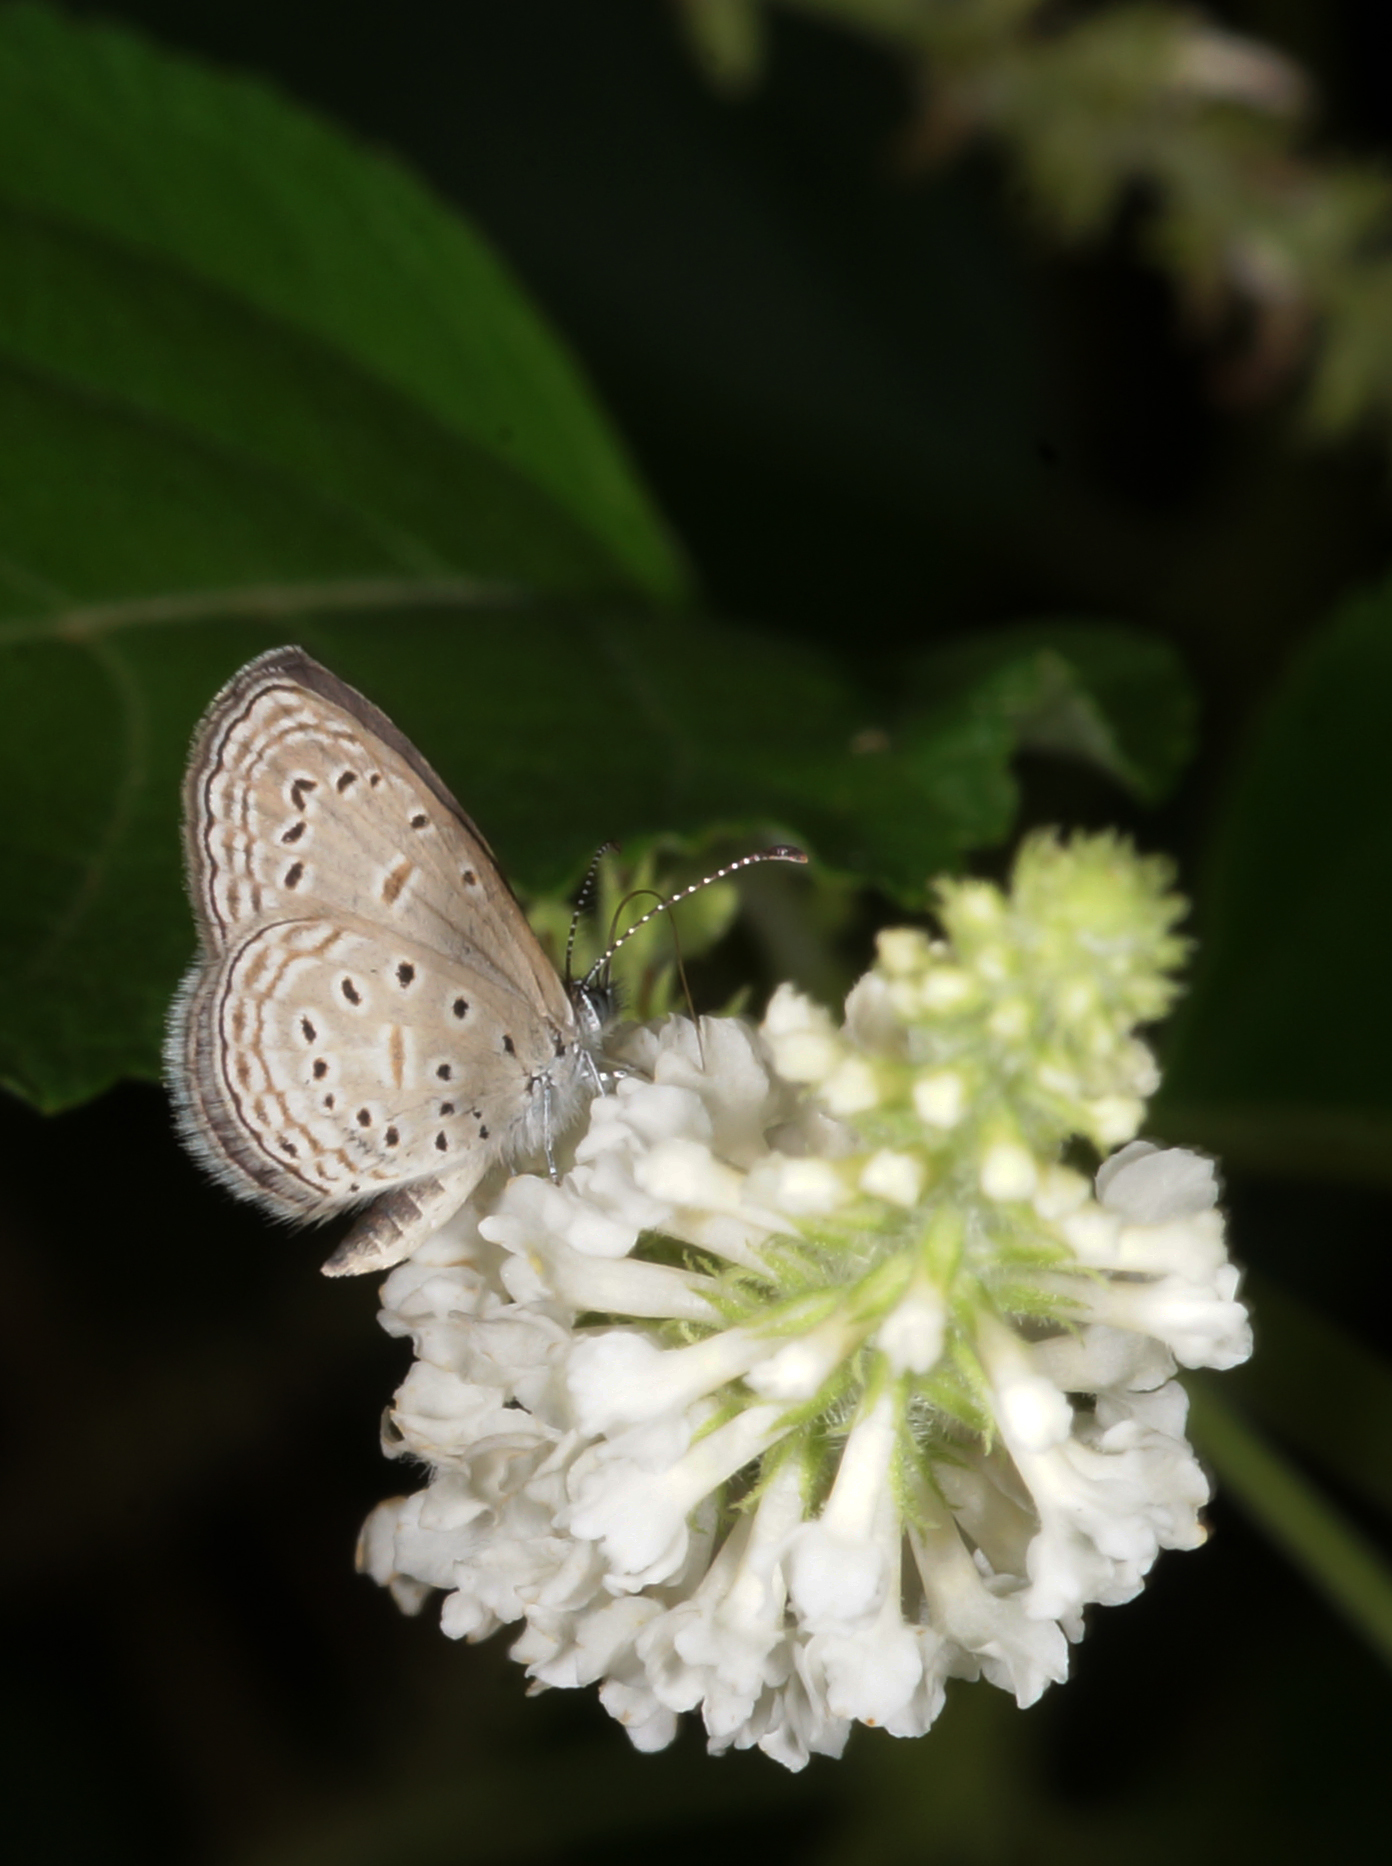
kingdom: Animalia
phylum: Arthropoda
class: Insecta
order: Lepidoptera
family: Lycaenidae
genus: Zizula
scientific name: Zizula hylax
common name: Gaika blue
